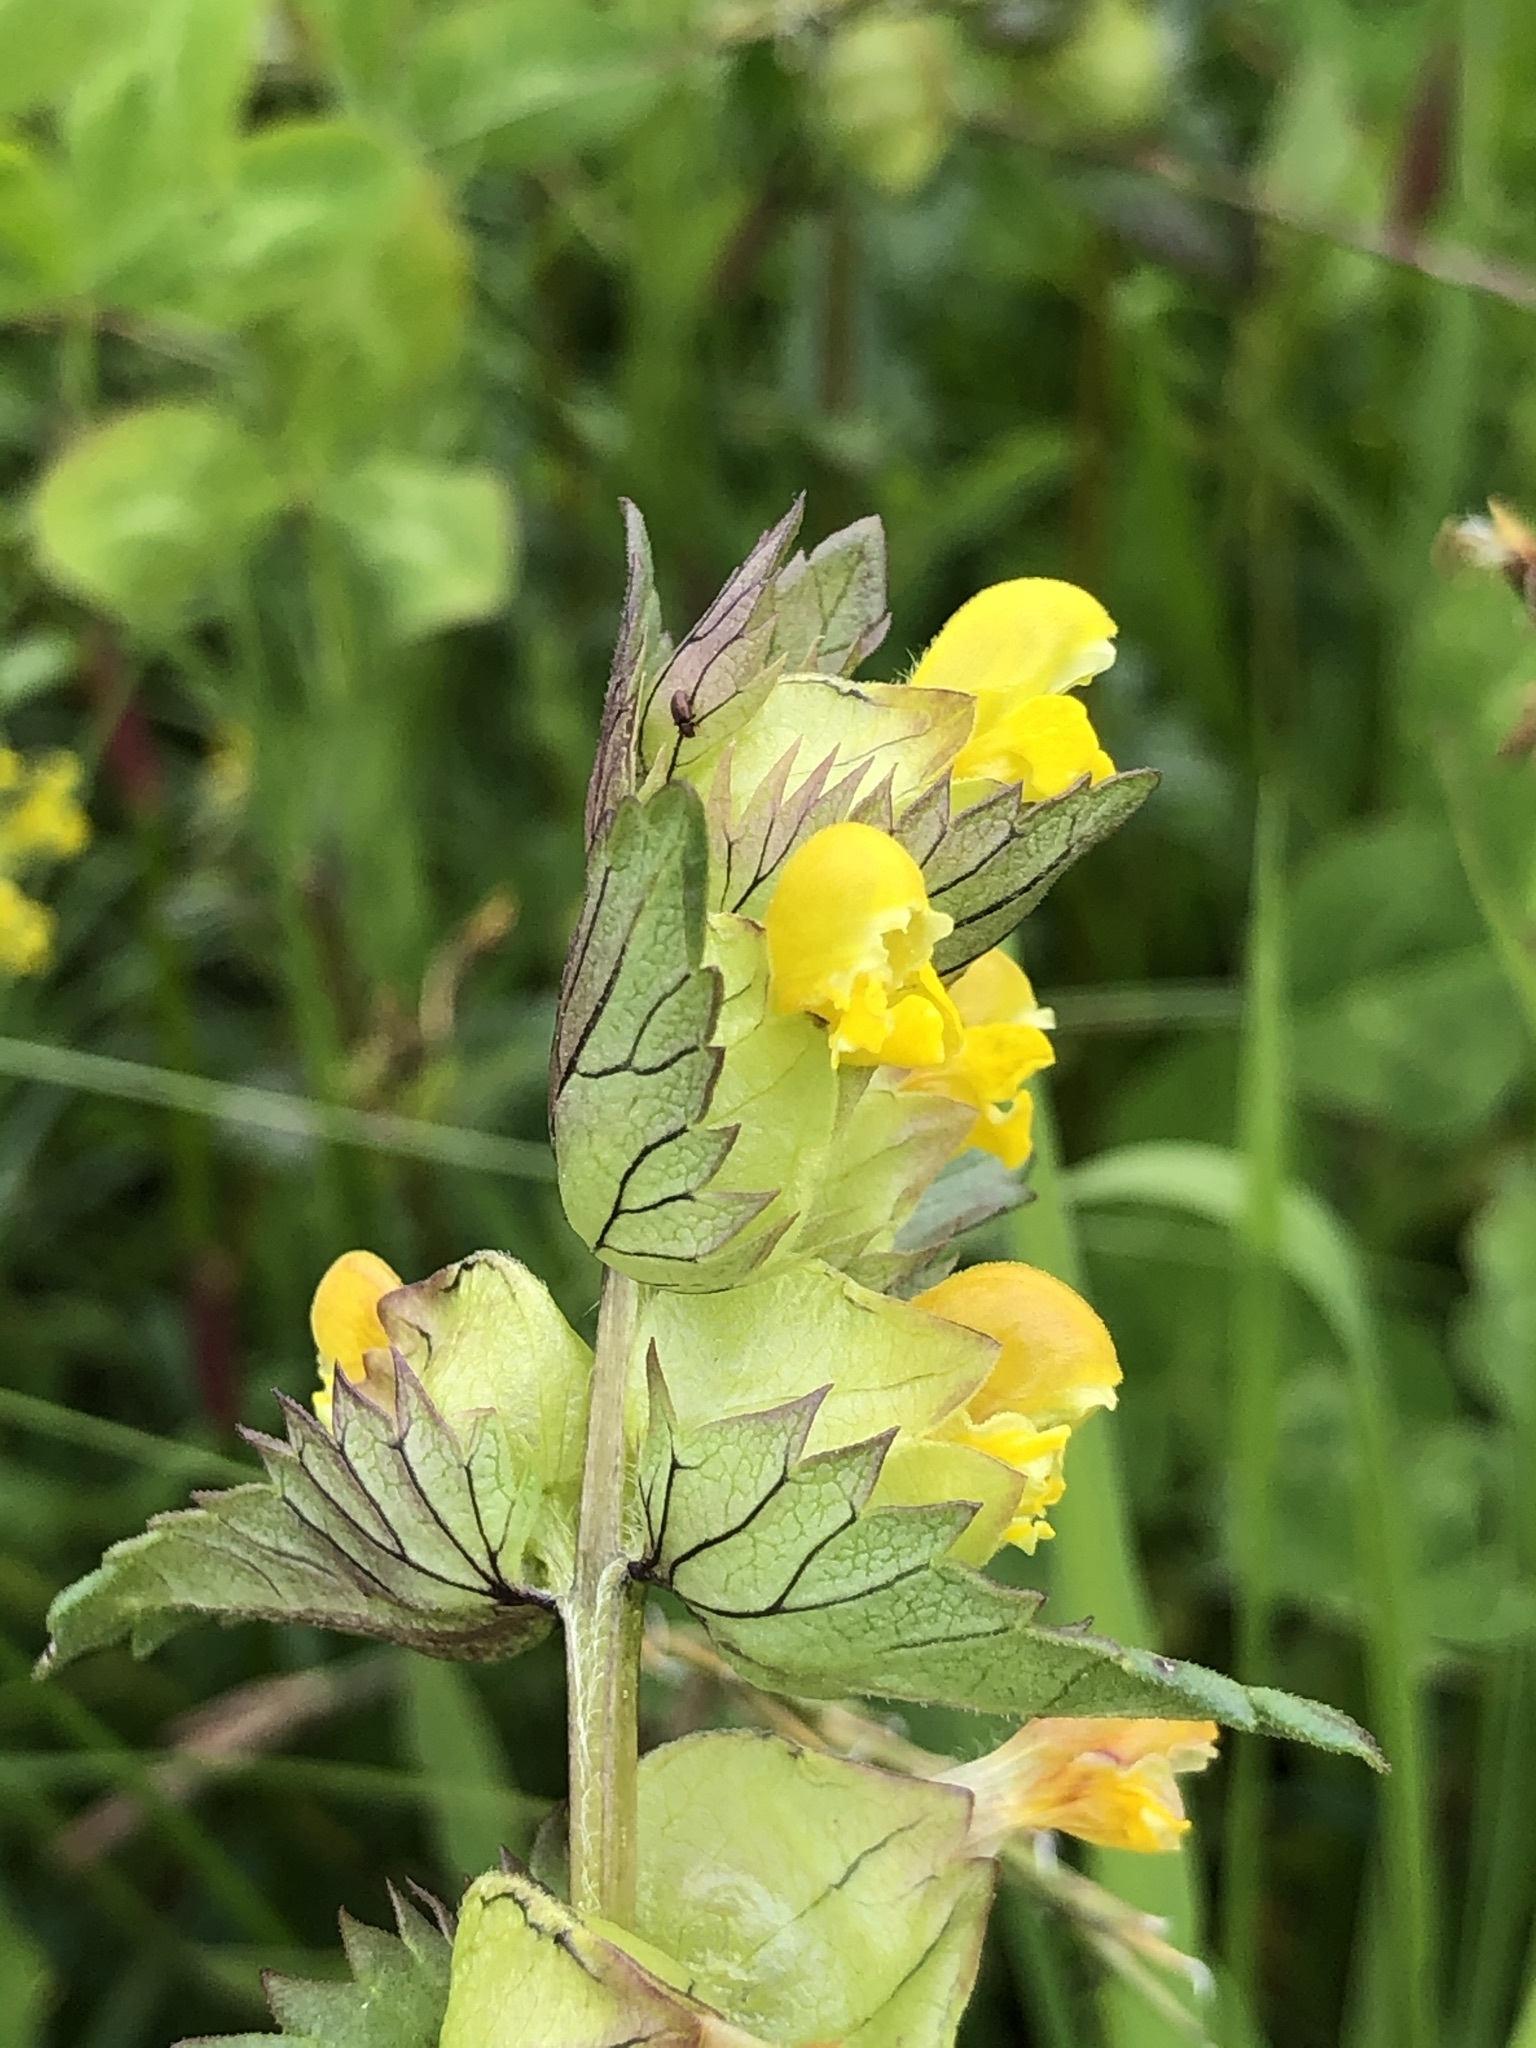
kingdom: Plantae
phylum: Tracheophyta
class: Magnoliopsida
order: Lamiales
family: Orobanchaceae
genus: Rhinanthus
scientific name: Rhinanthus minor
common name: Yellow-rattle
